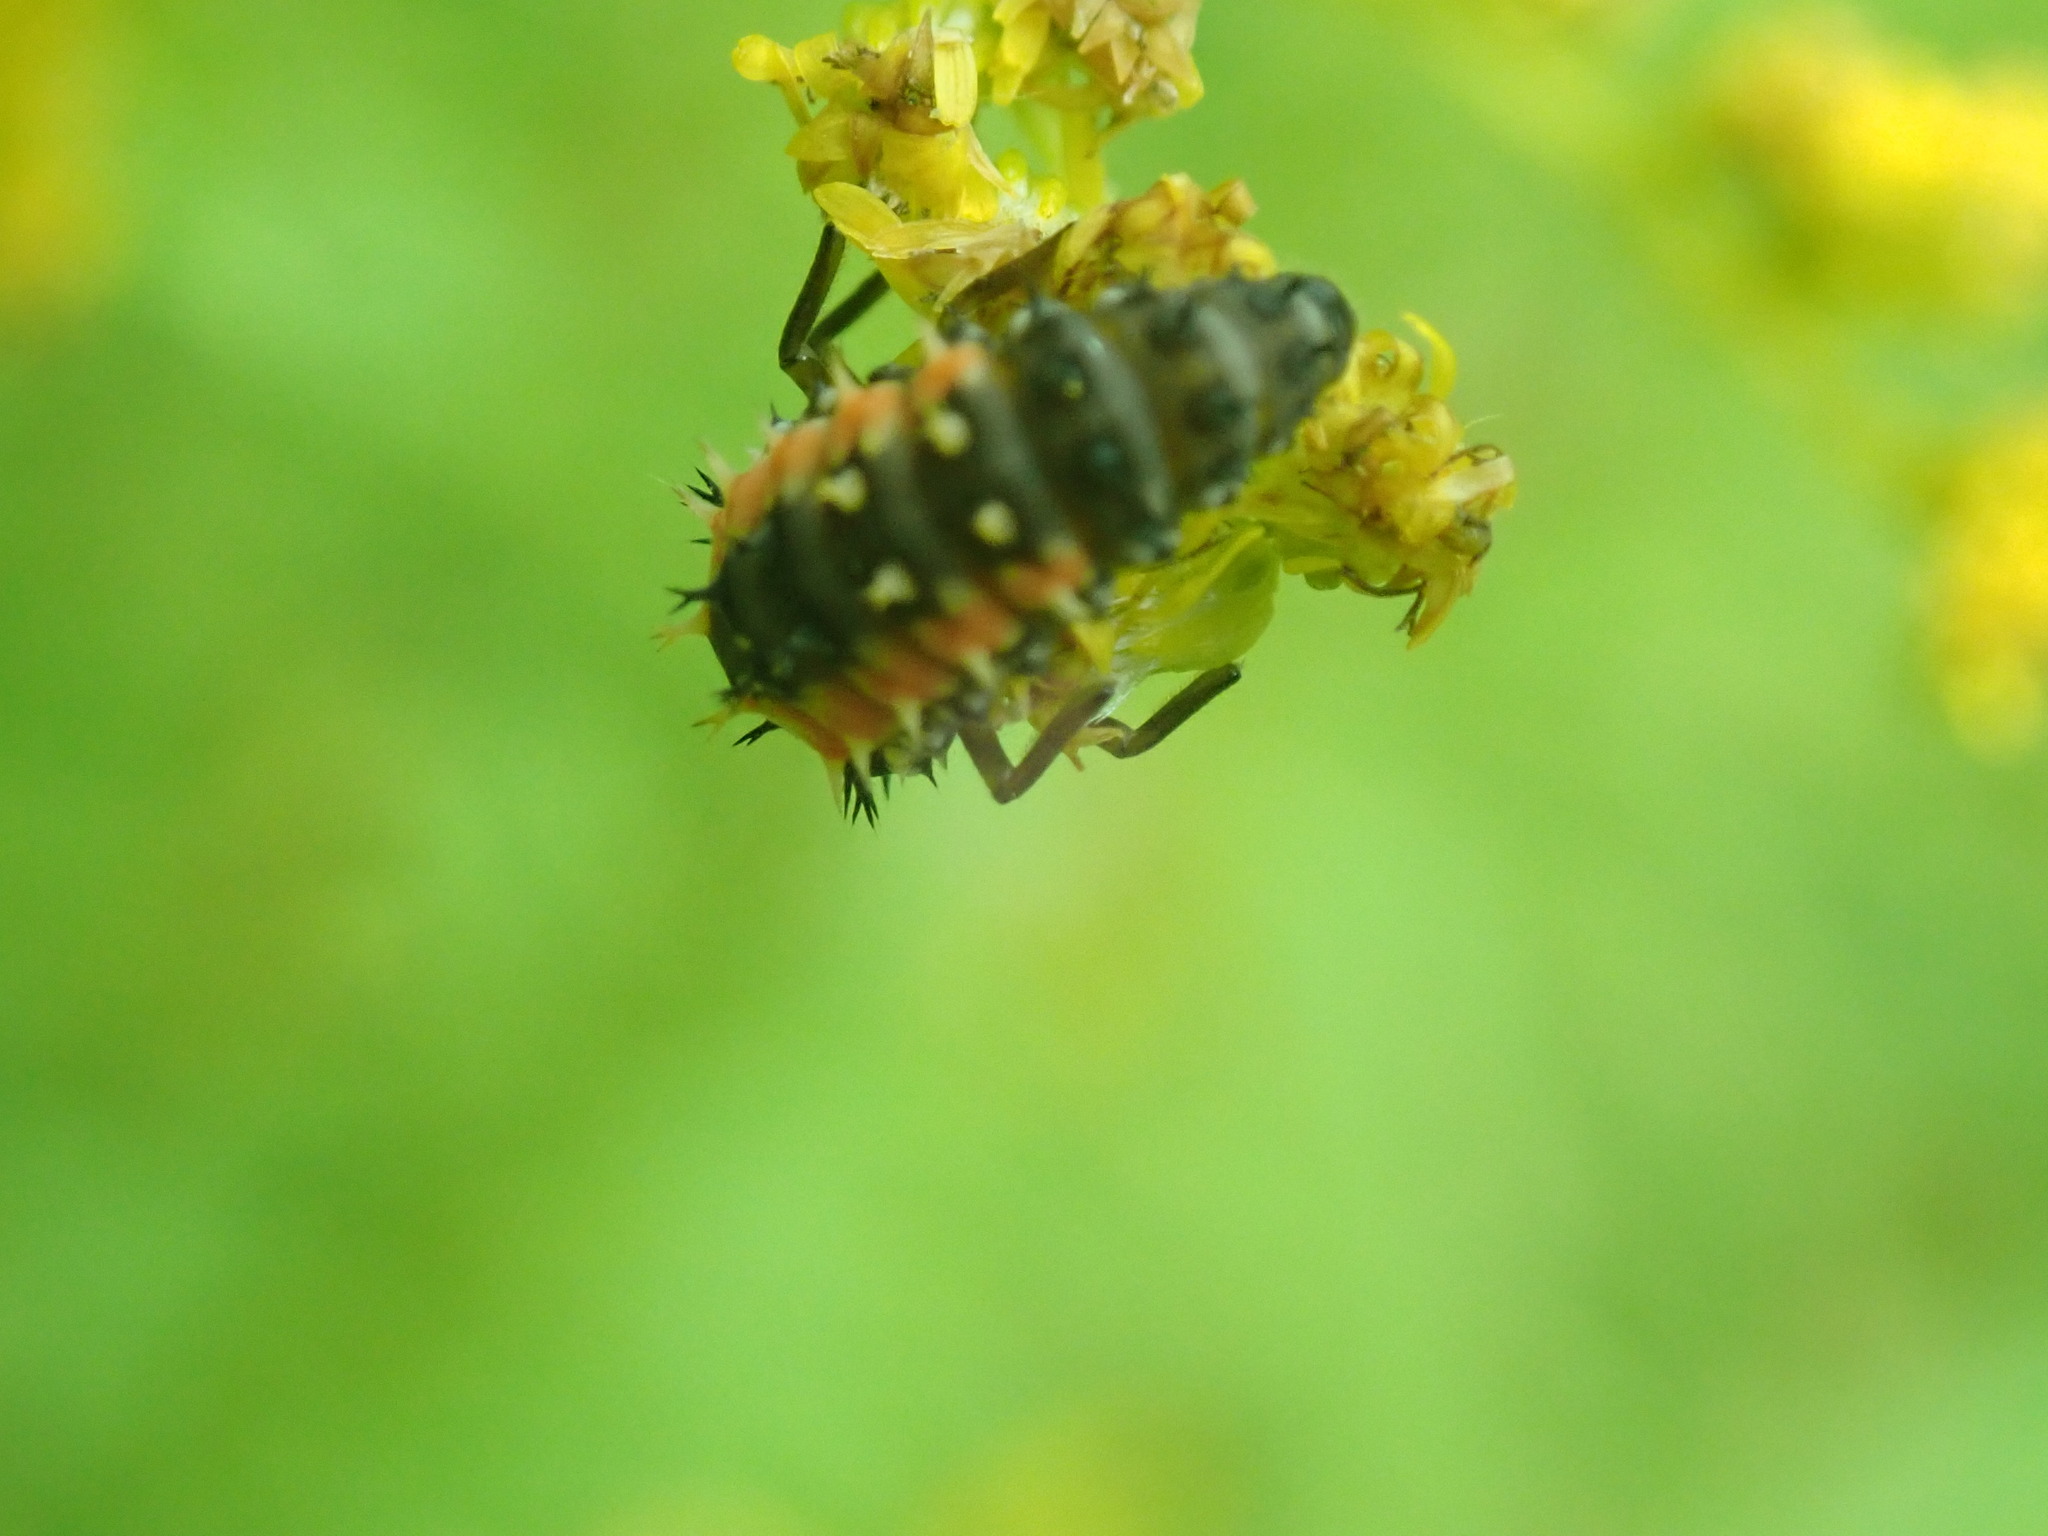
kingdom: Animalia
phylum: Arthropoda
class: Insecta
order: Coleoptera
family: Coccinellidae
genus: Harmonia
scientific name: Harmonia axyridis
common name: Harlequin ladybird
